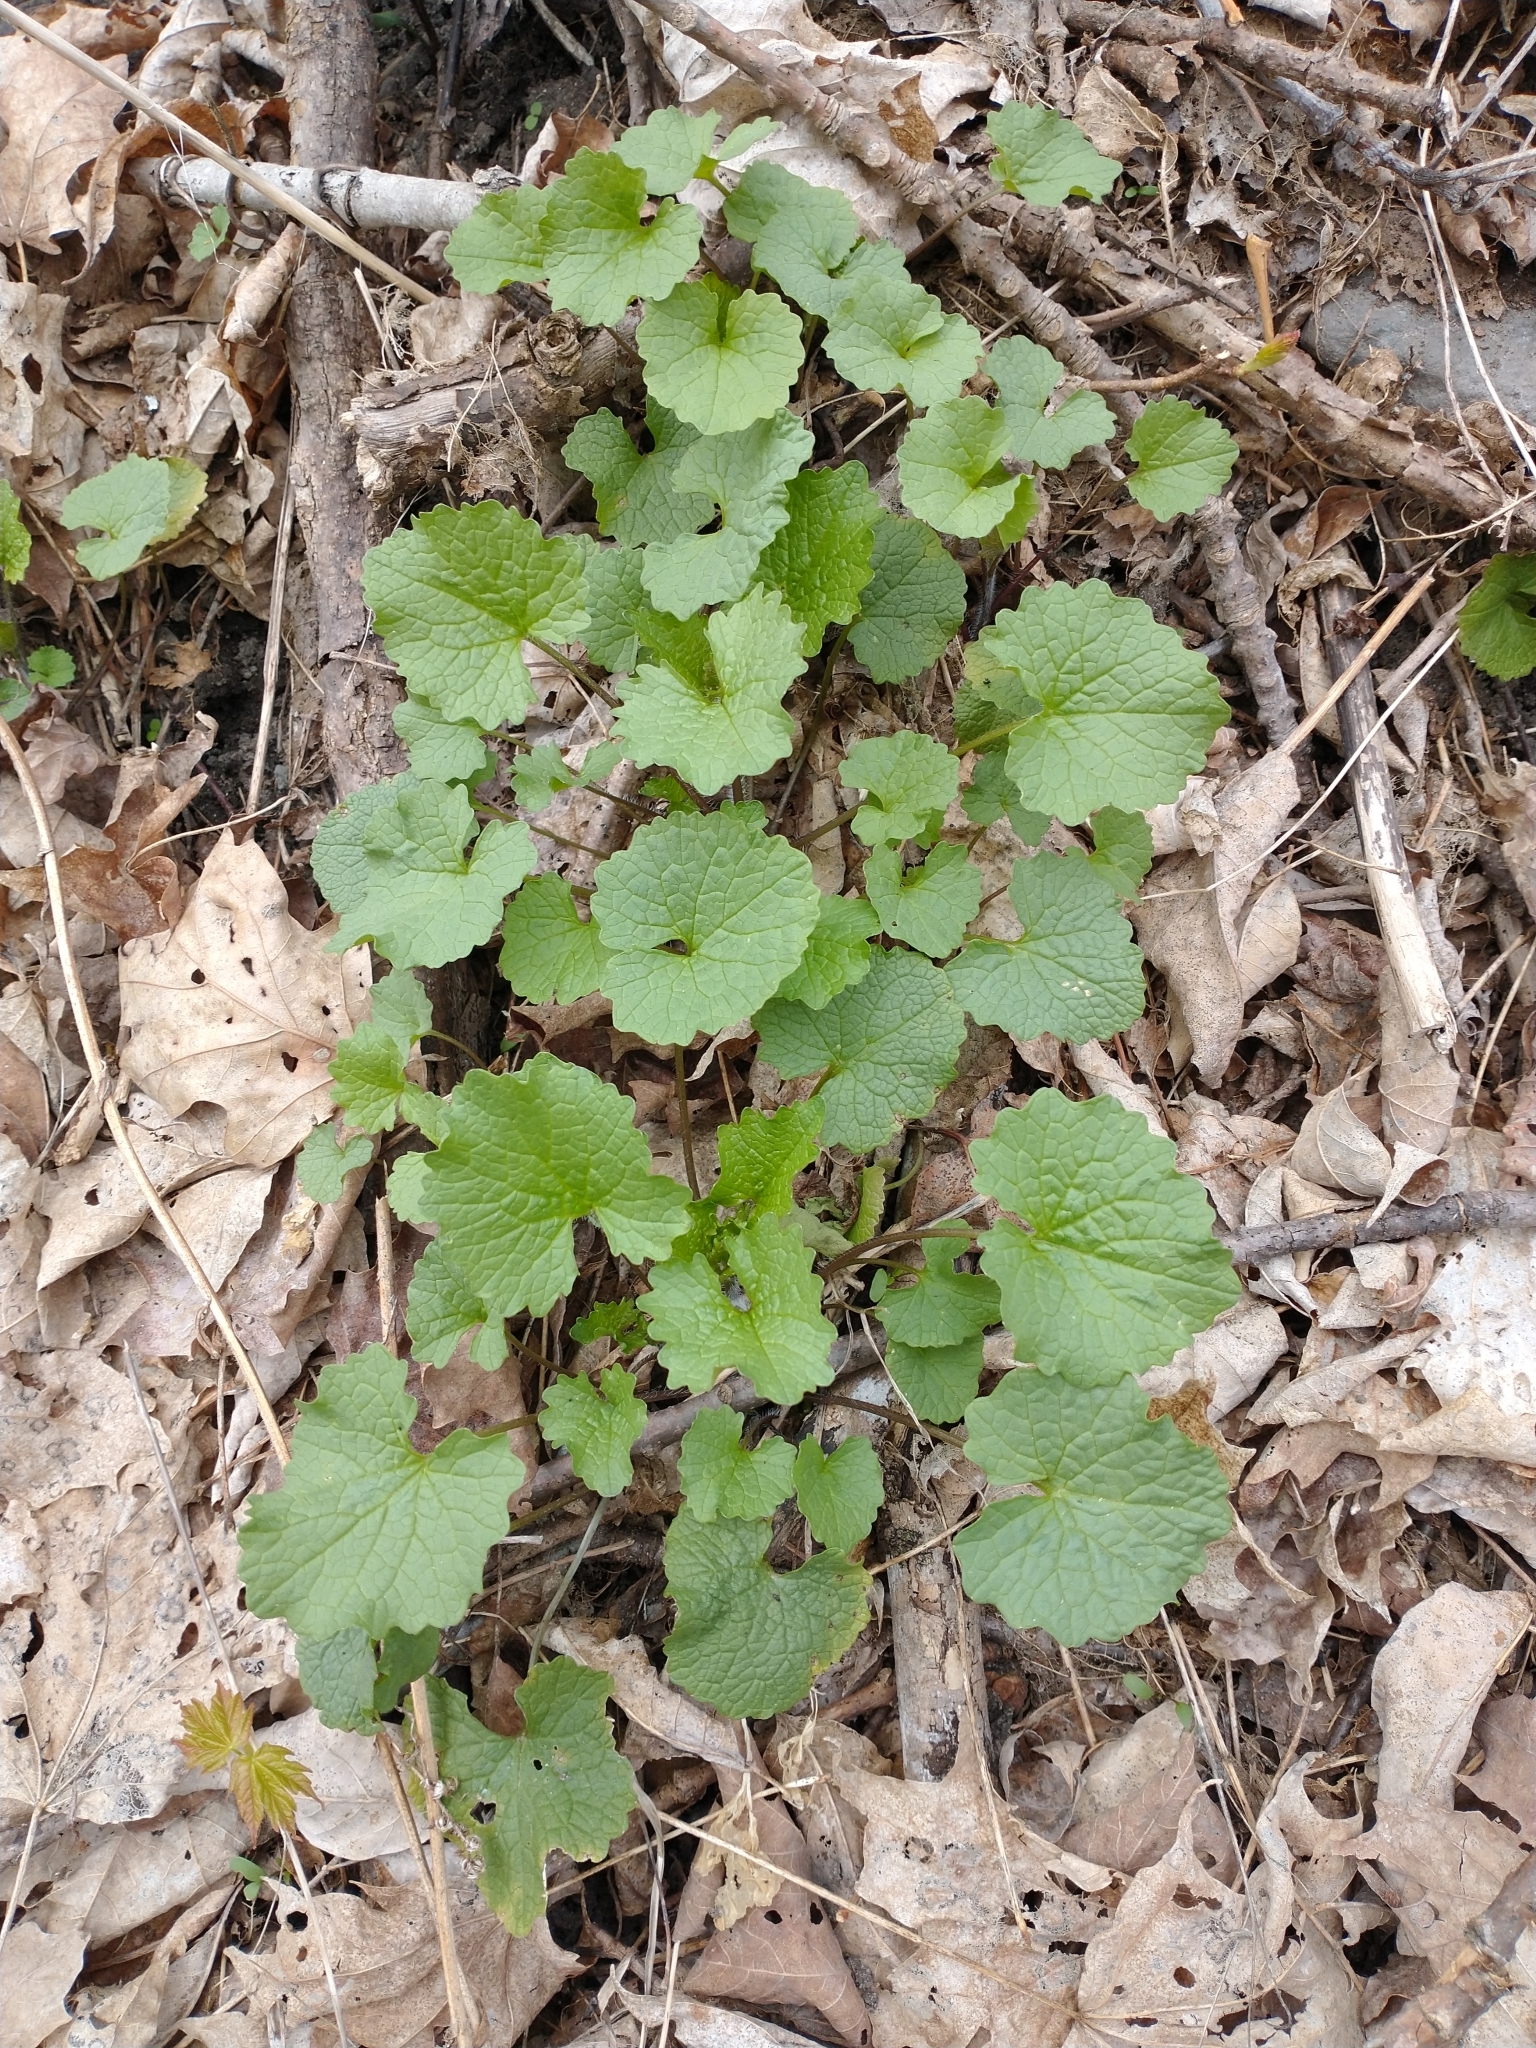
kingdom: Plantae
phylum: Tracheophyta
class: Magnoliopsida
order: Brassicales
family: Brassicaceae
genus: Alliaria
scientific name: Alliaria petiolata
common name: Garlic mustard
